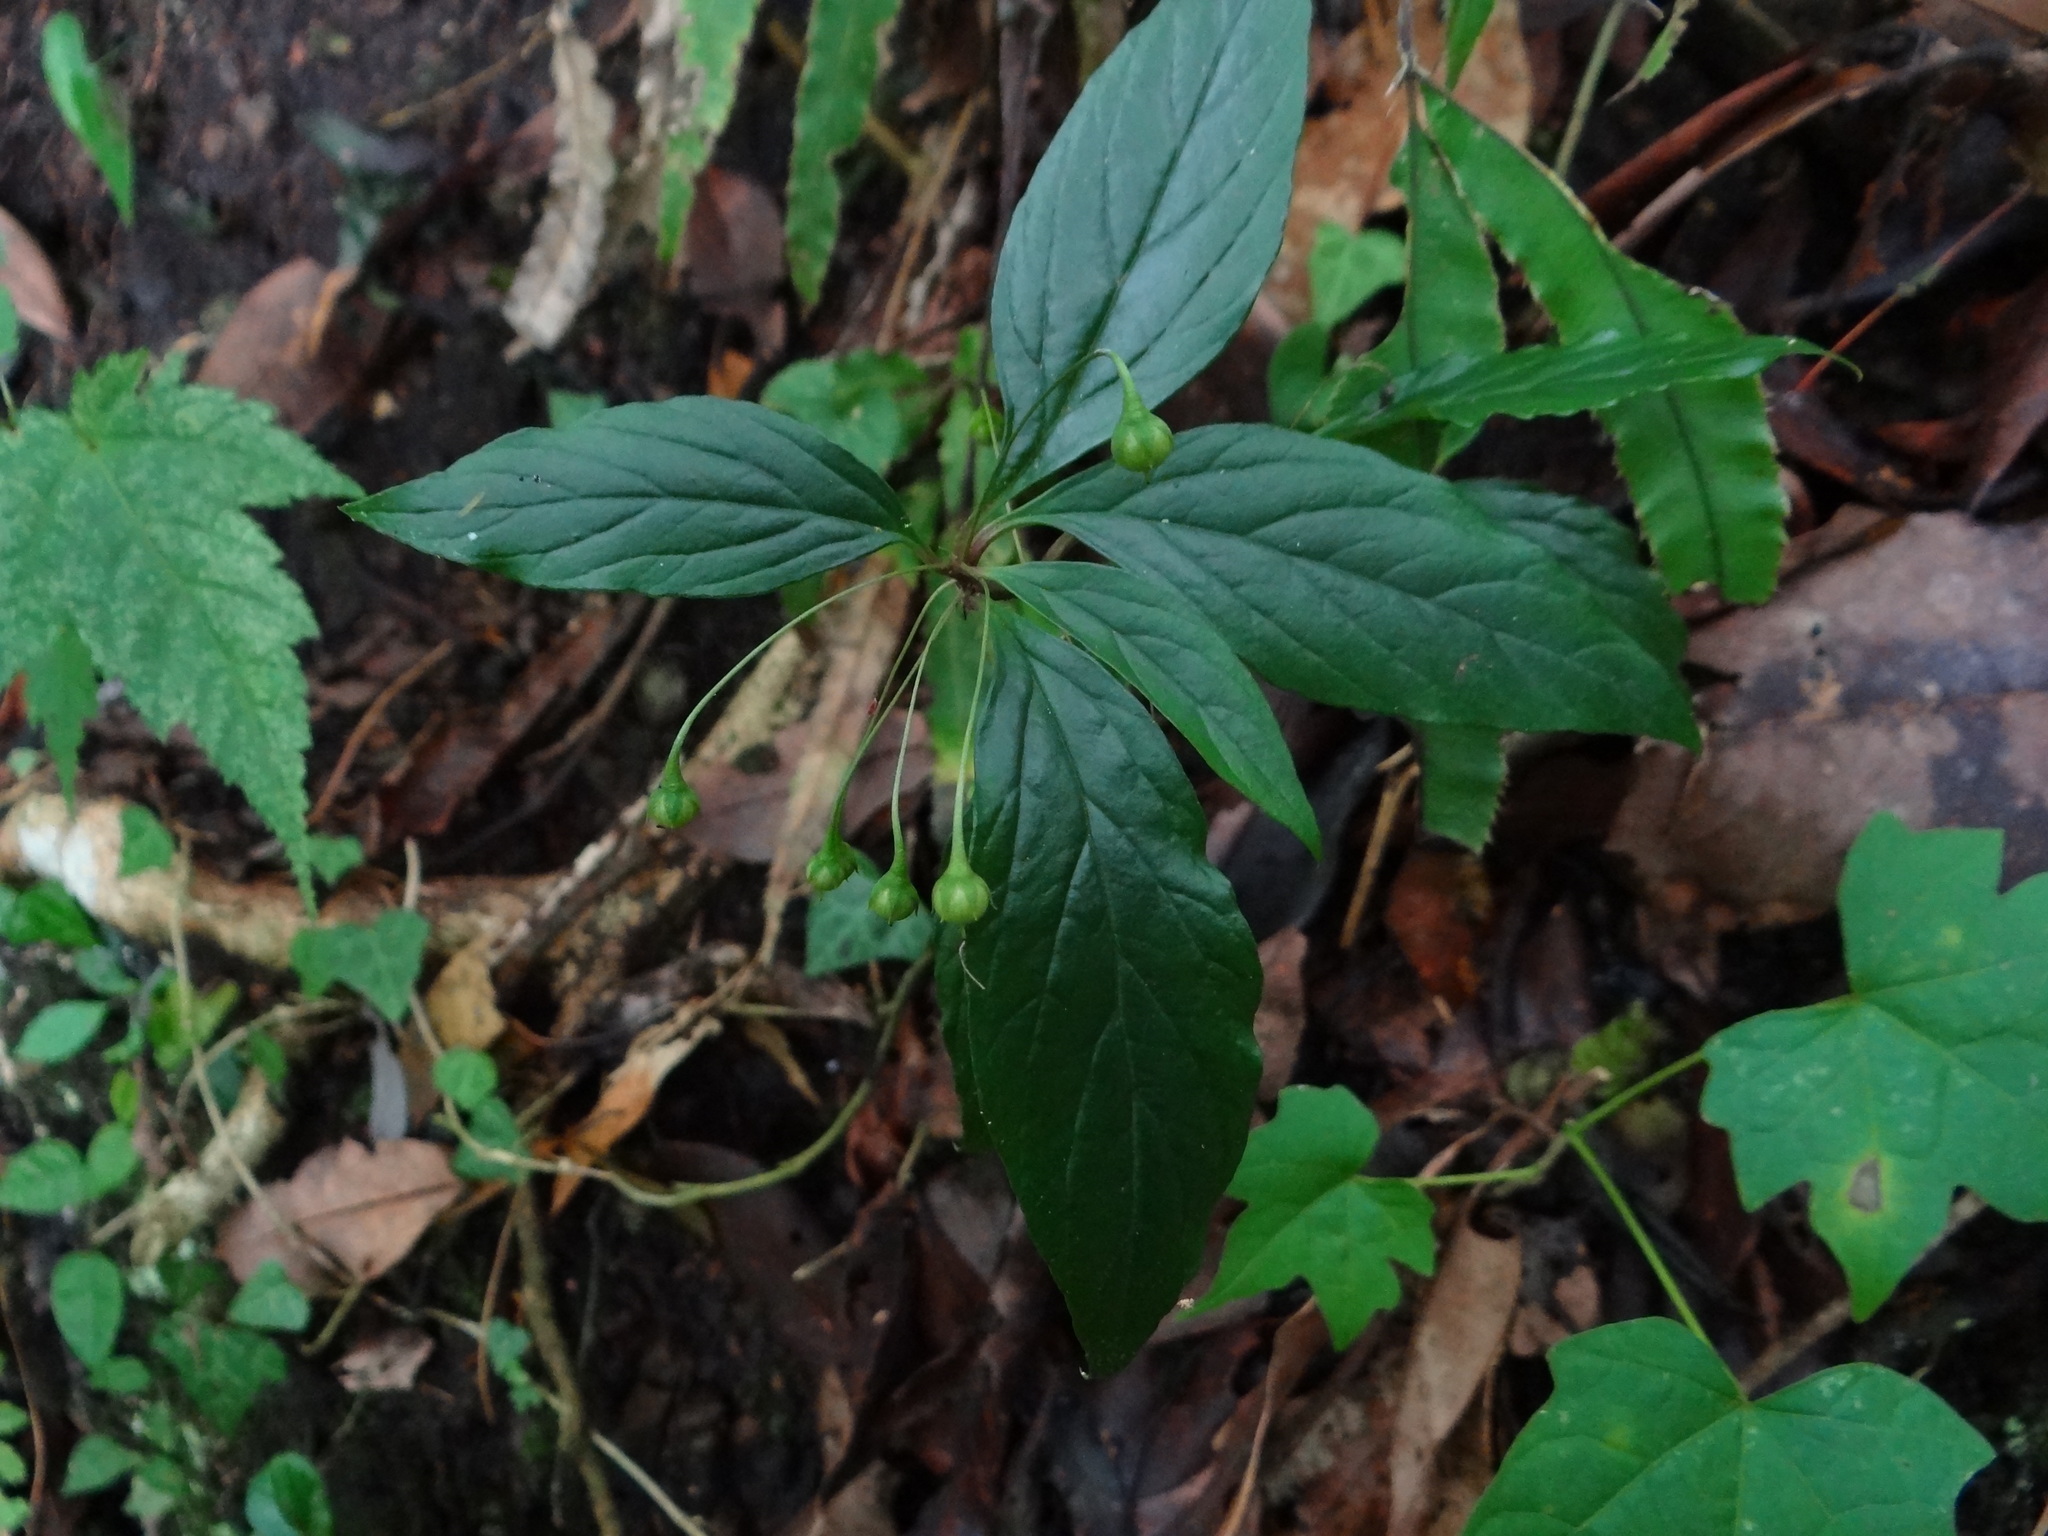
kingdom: Plantae
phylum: Tracheophyta
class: Magnoliopsida
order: Ericales
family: Primulaceae
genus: Lysimachia
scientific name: Lysimachia ardisioides
